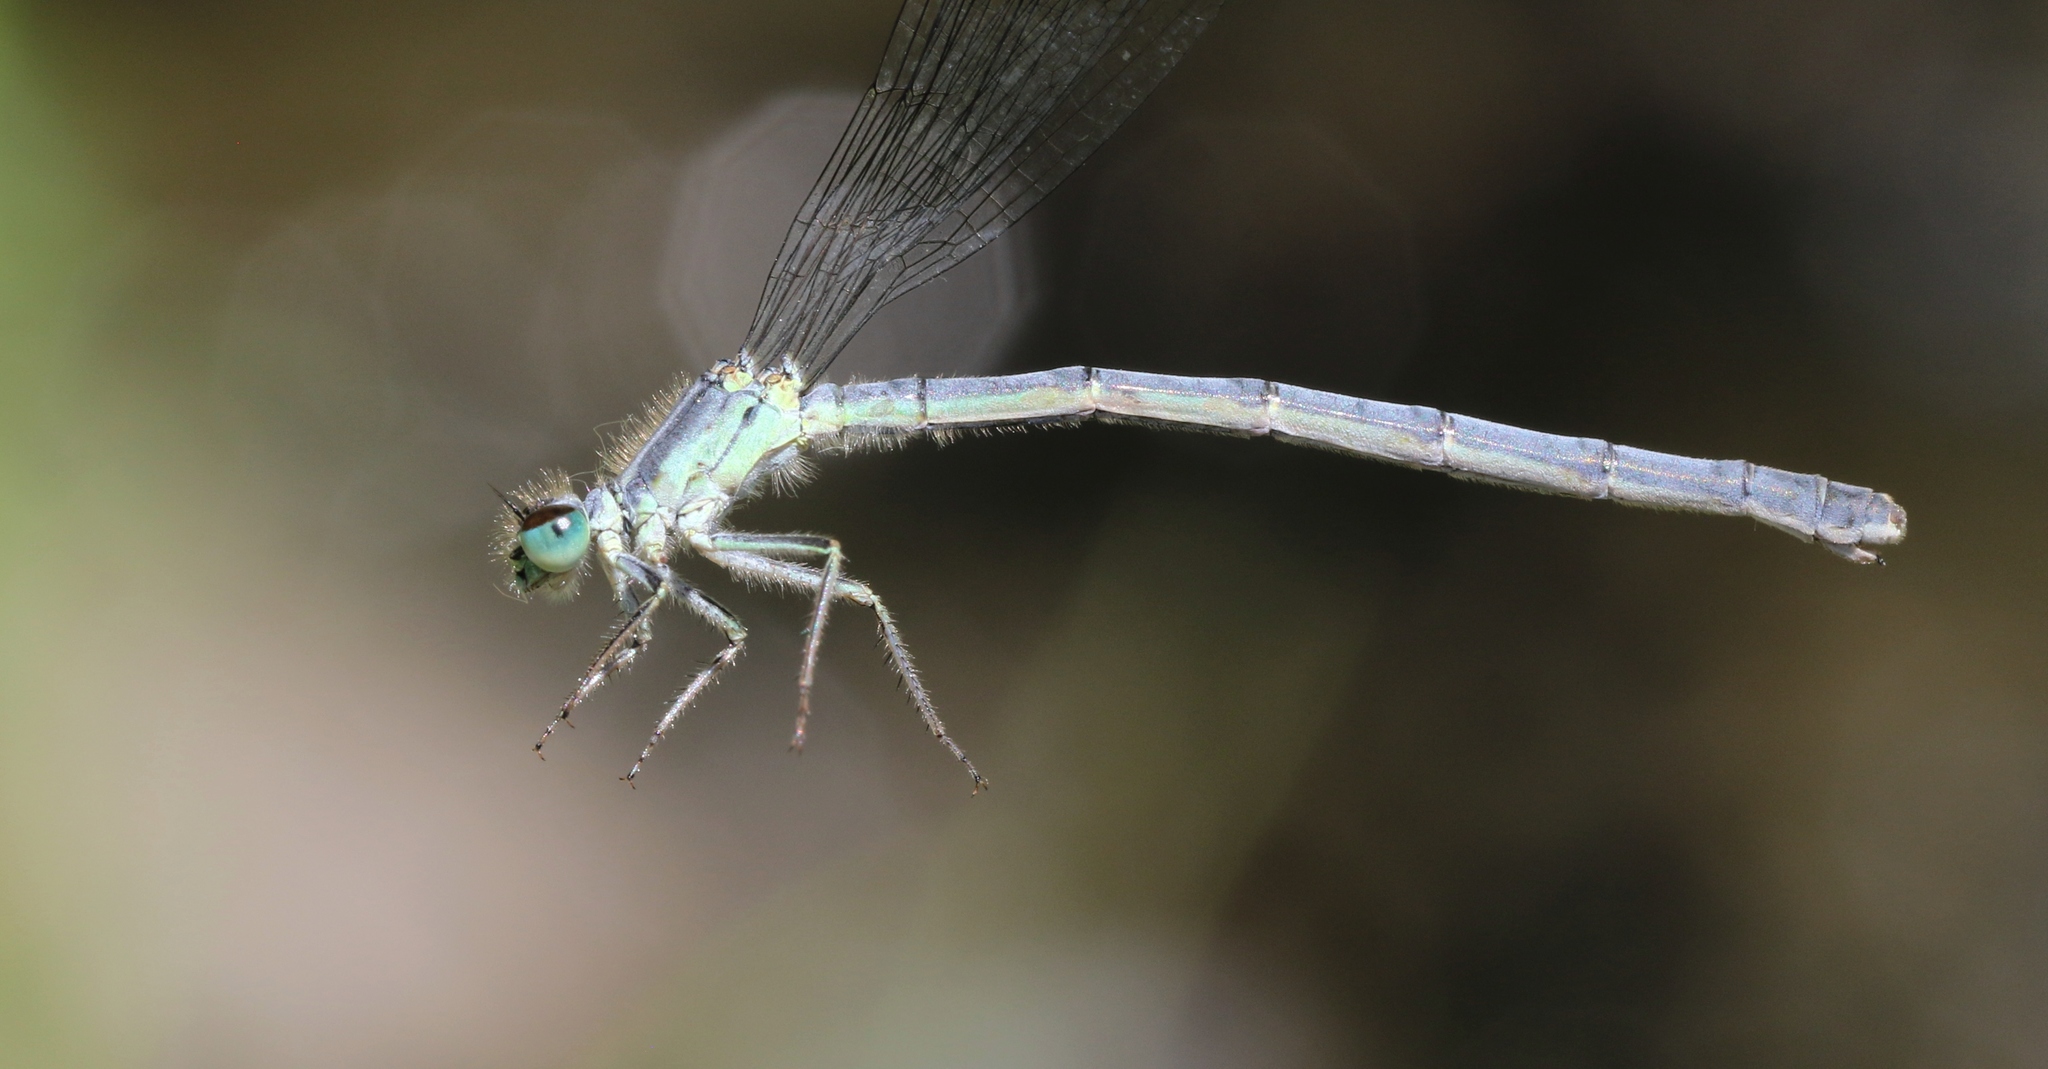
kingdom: Animalia
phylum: Arthropoda
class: Insecta
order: Odonata
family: Coenagrionidae
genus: Ischnura
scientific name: Ischnura verticalis
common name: Eastern forktail
